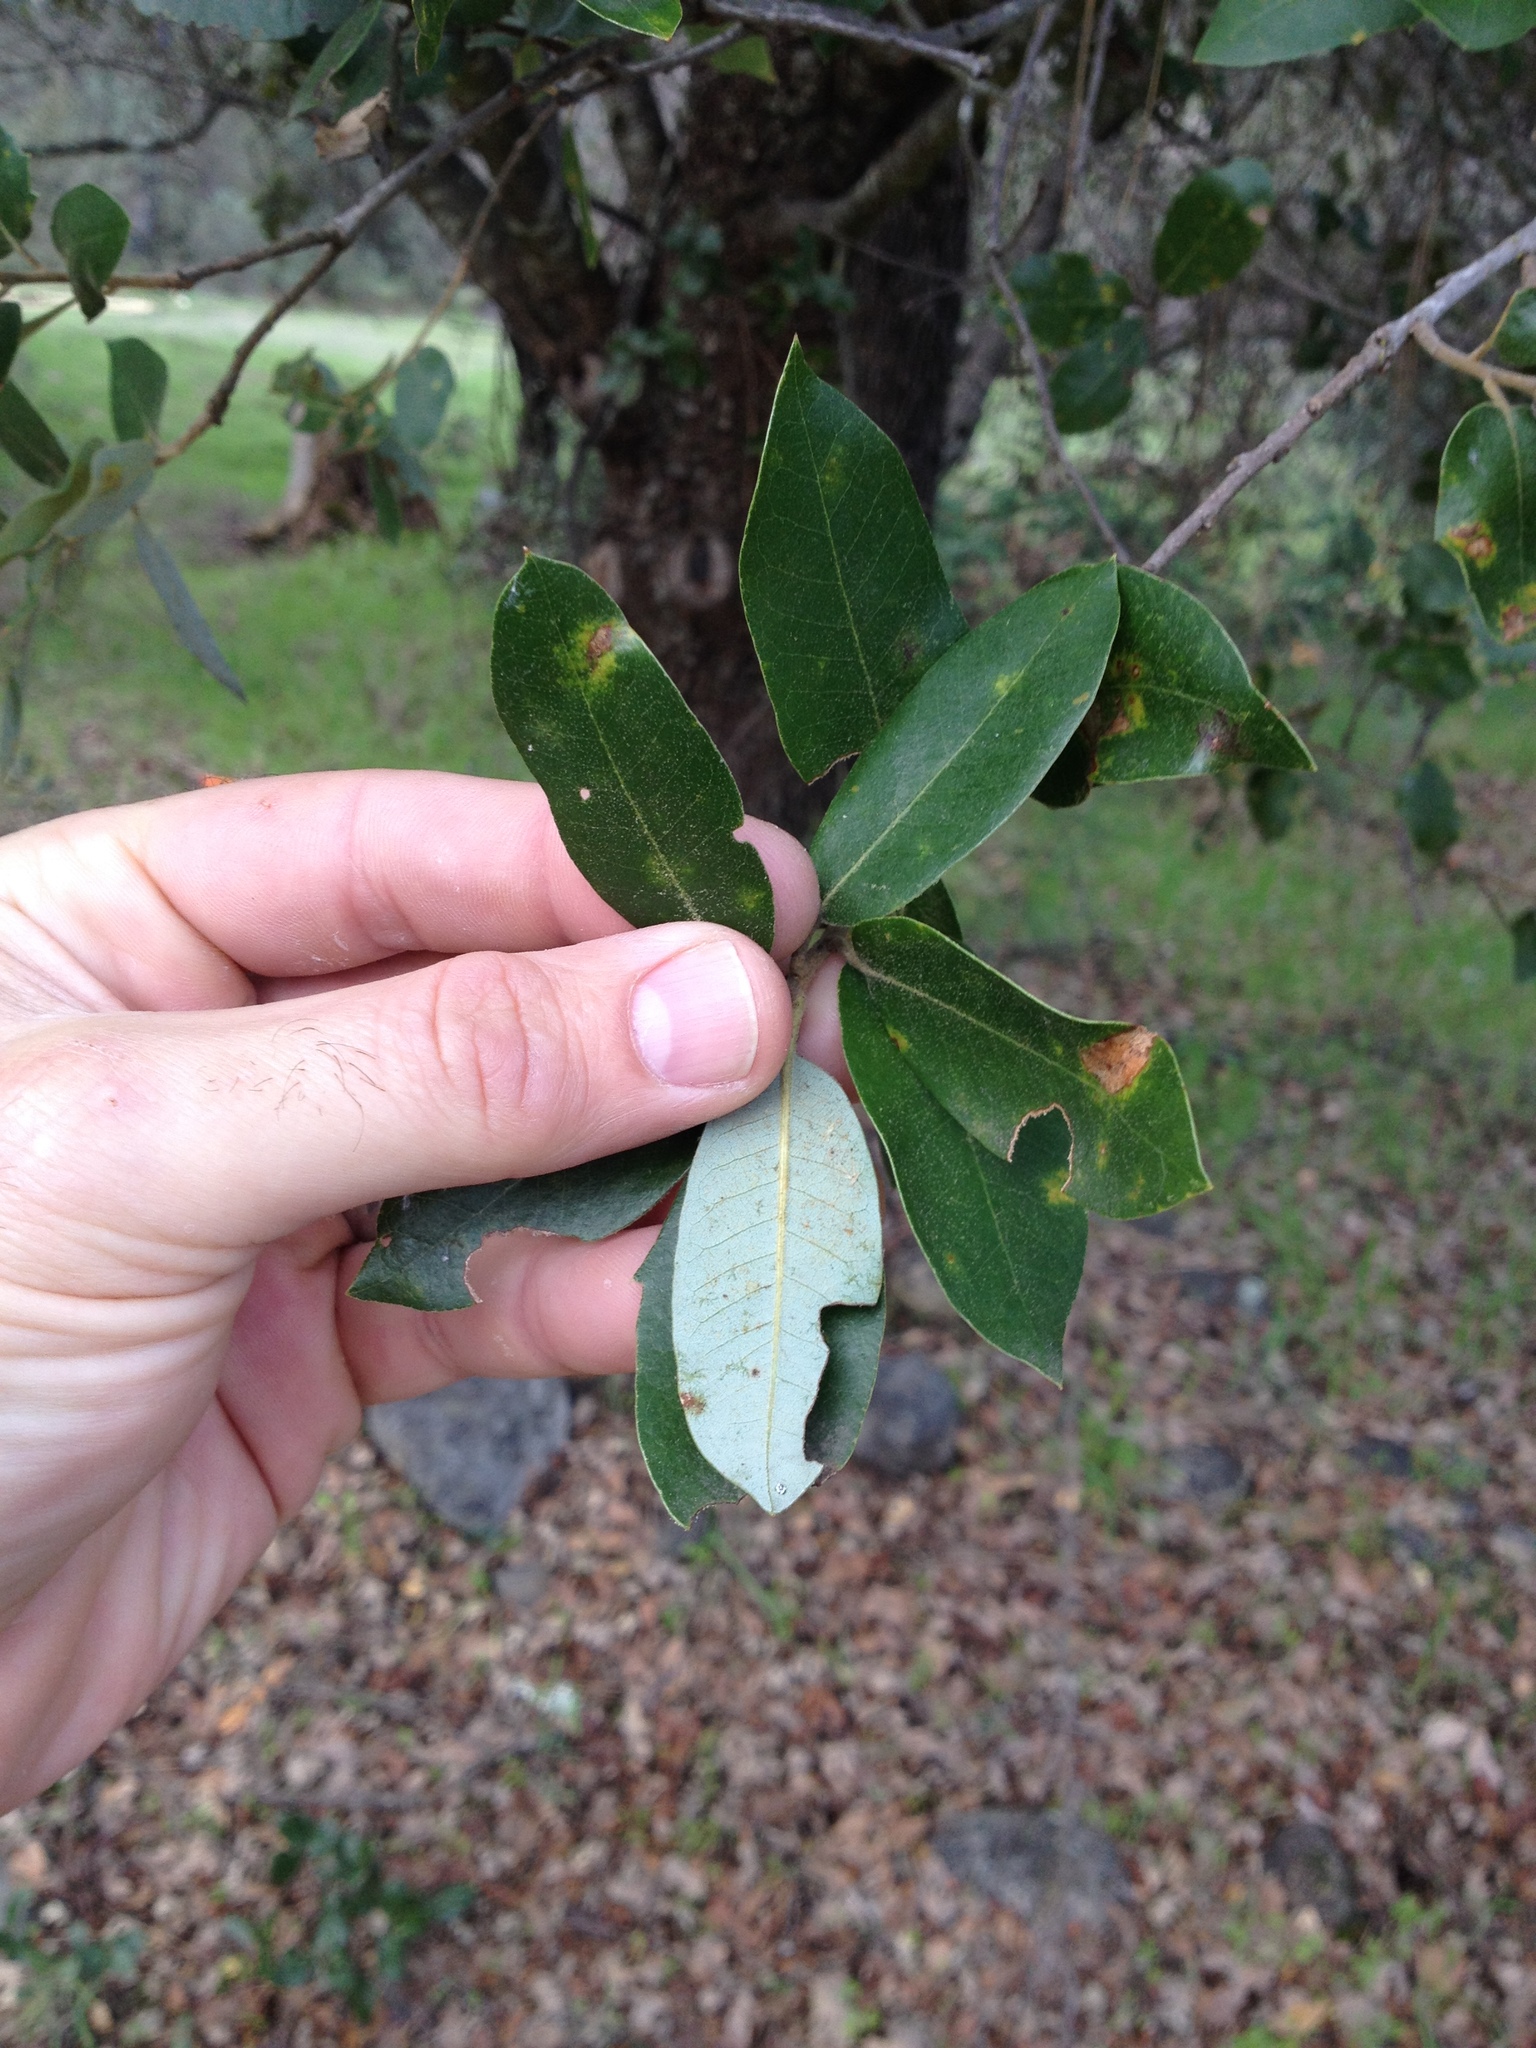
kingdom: Plantae
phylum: Tracheophyta
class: Magnoliopsida
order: Fagales
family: Fagaceae
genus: Quercus
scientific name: Quercus chrysolepis
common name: Canyon live oak
